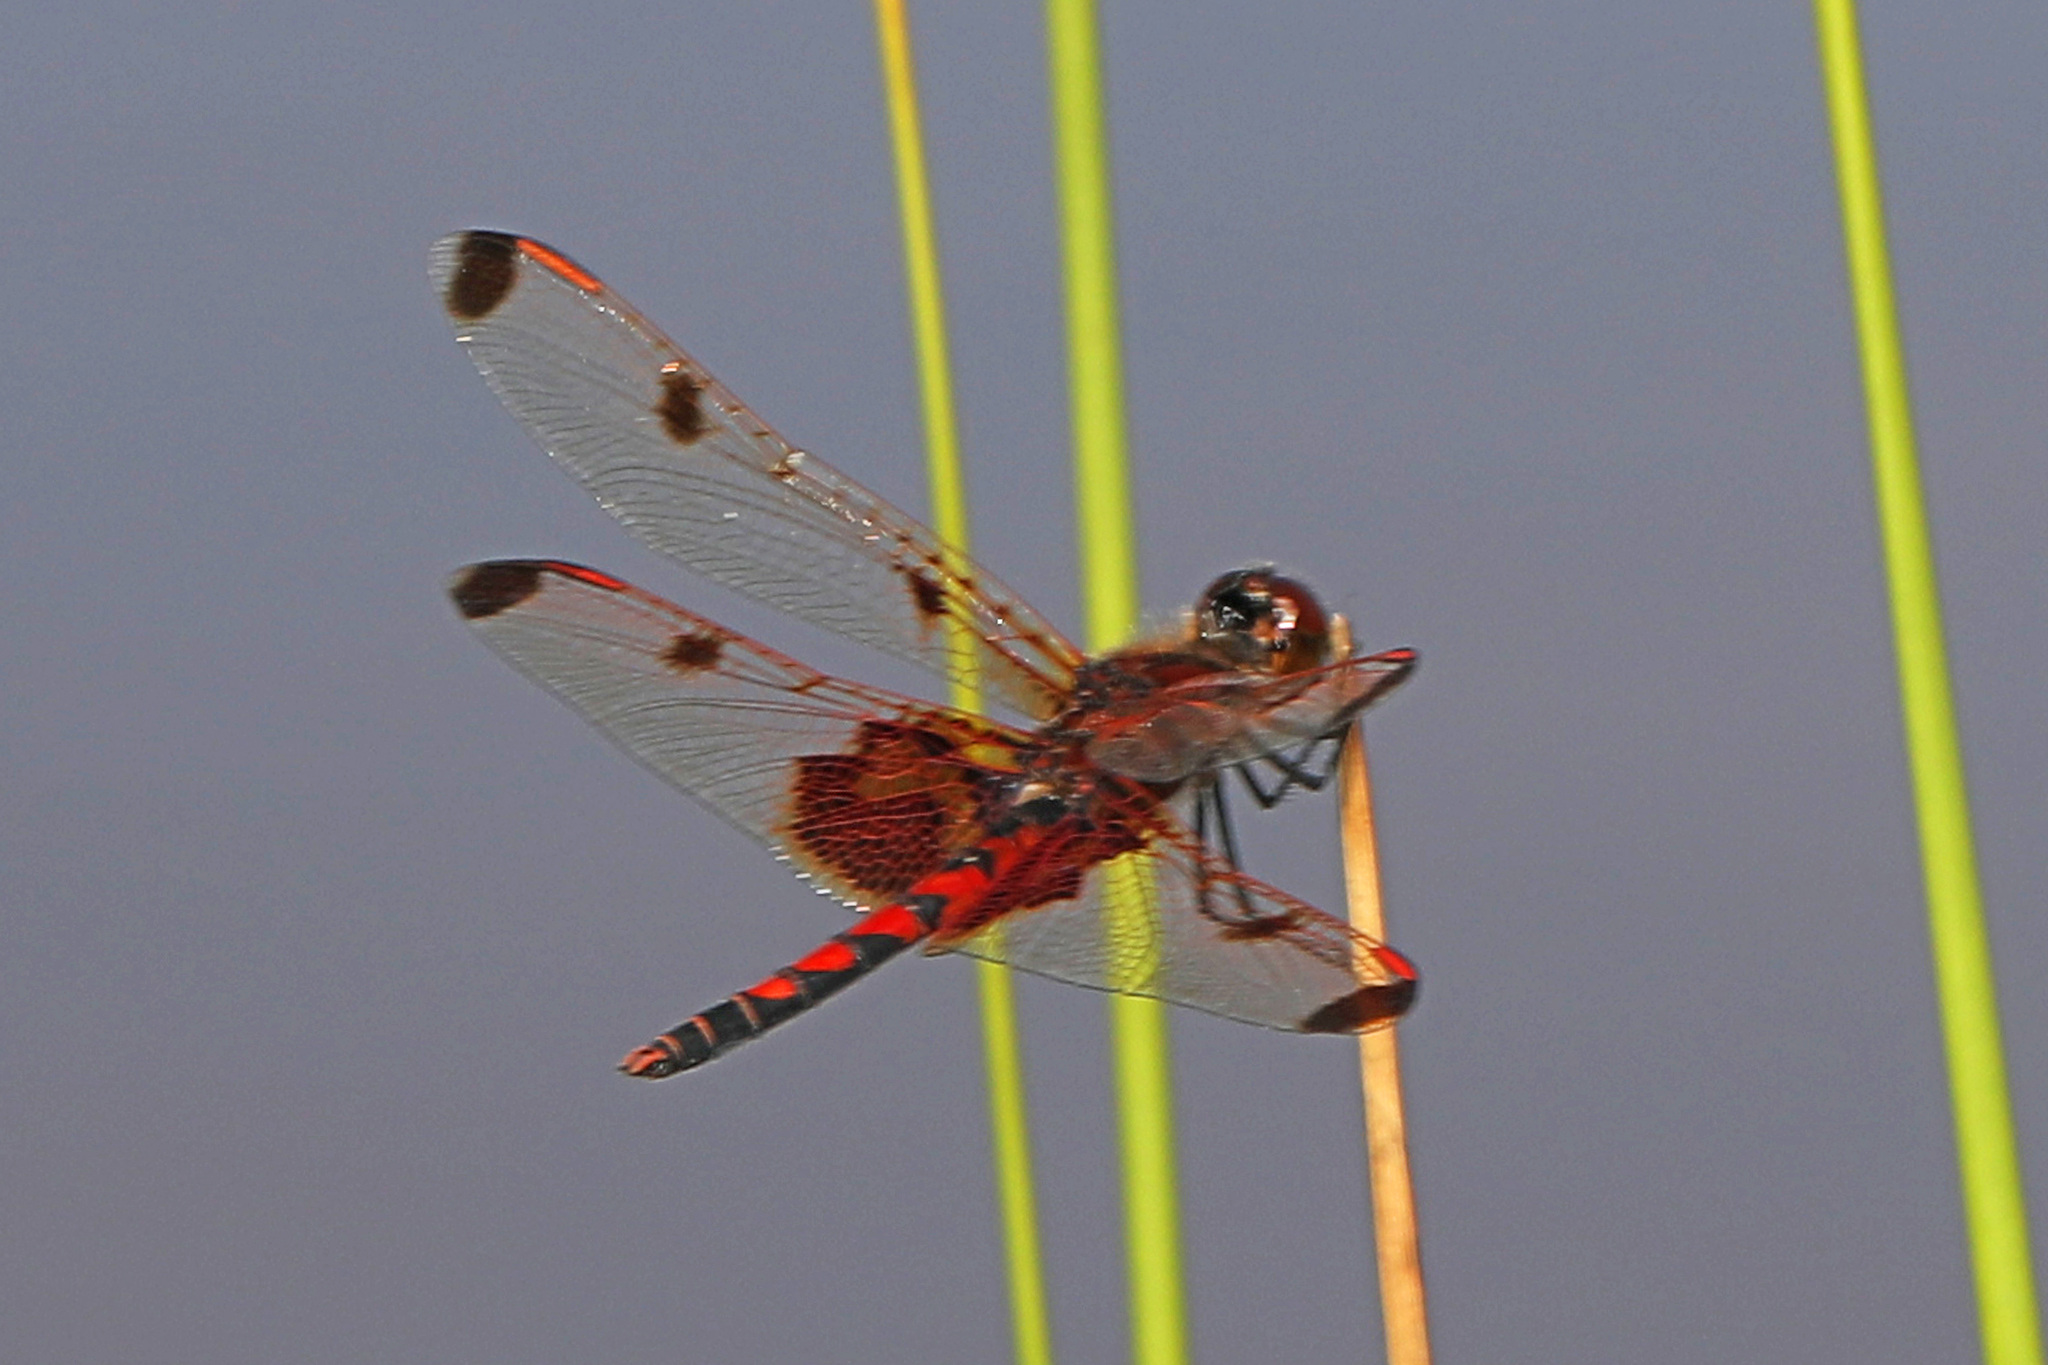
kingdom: Animalia
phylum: Arthropoda
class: Insecta
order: Odonata
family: Libellulidae
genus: Celithemis
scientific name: Celithemis elisa
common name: Calico pennant
